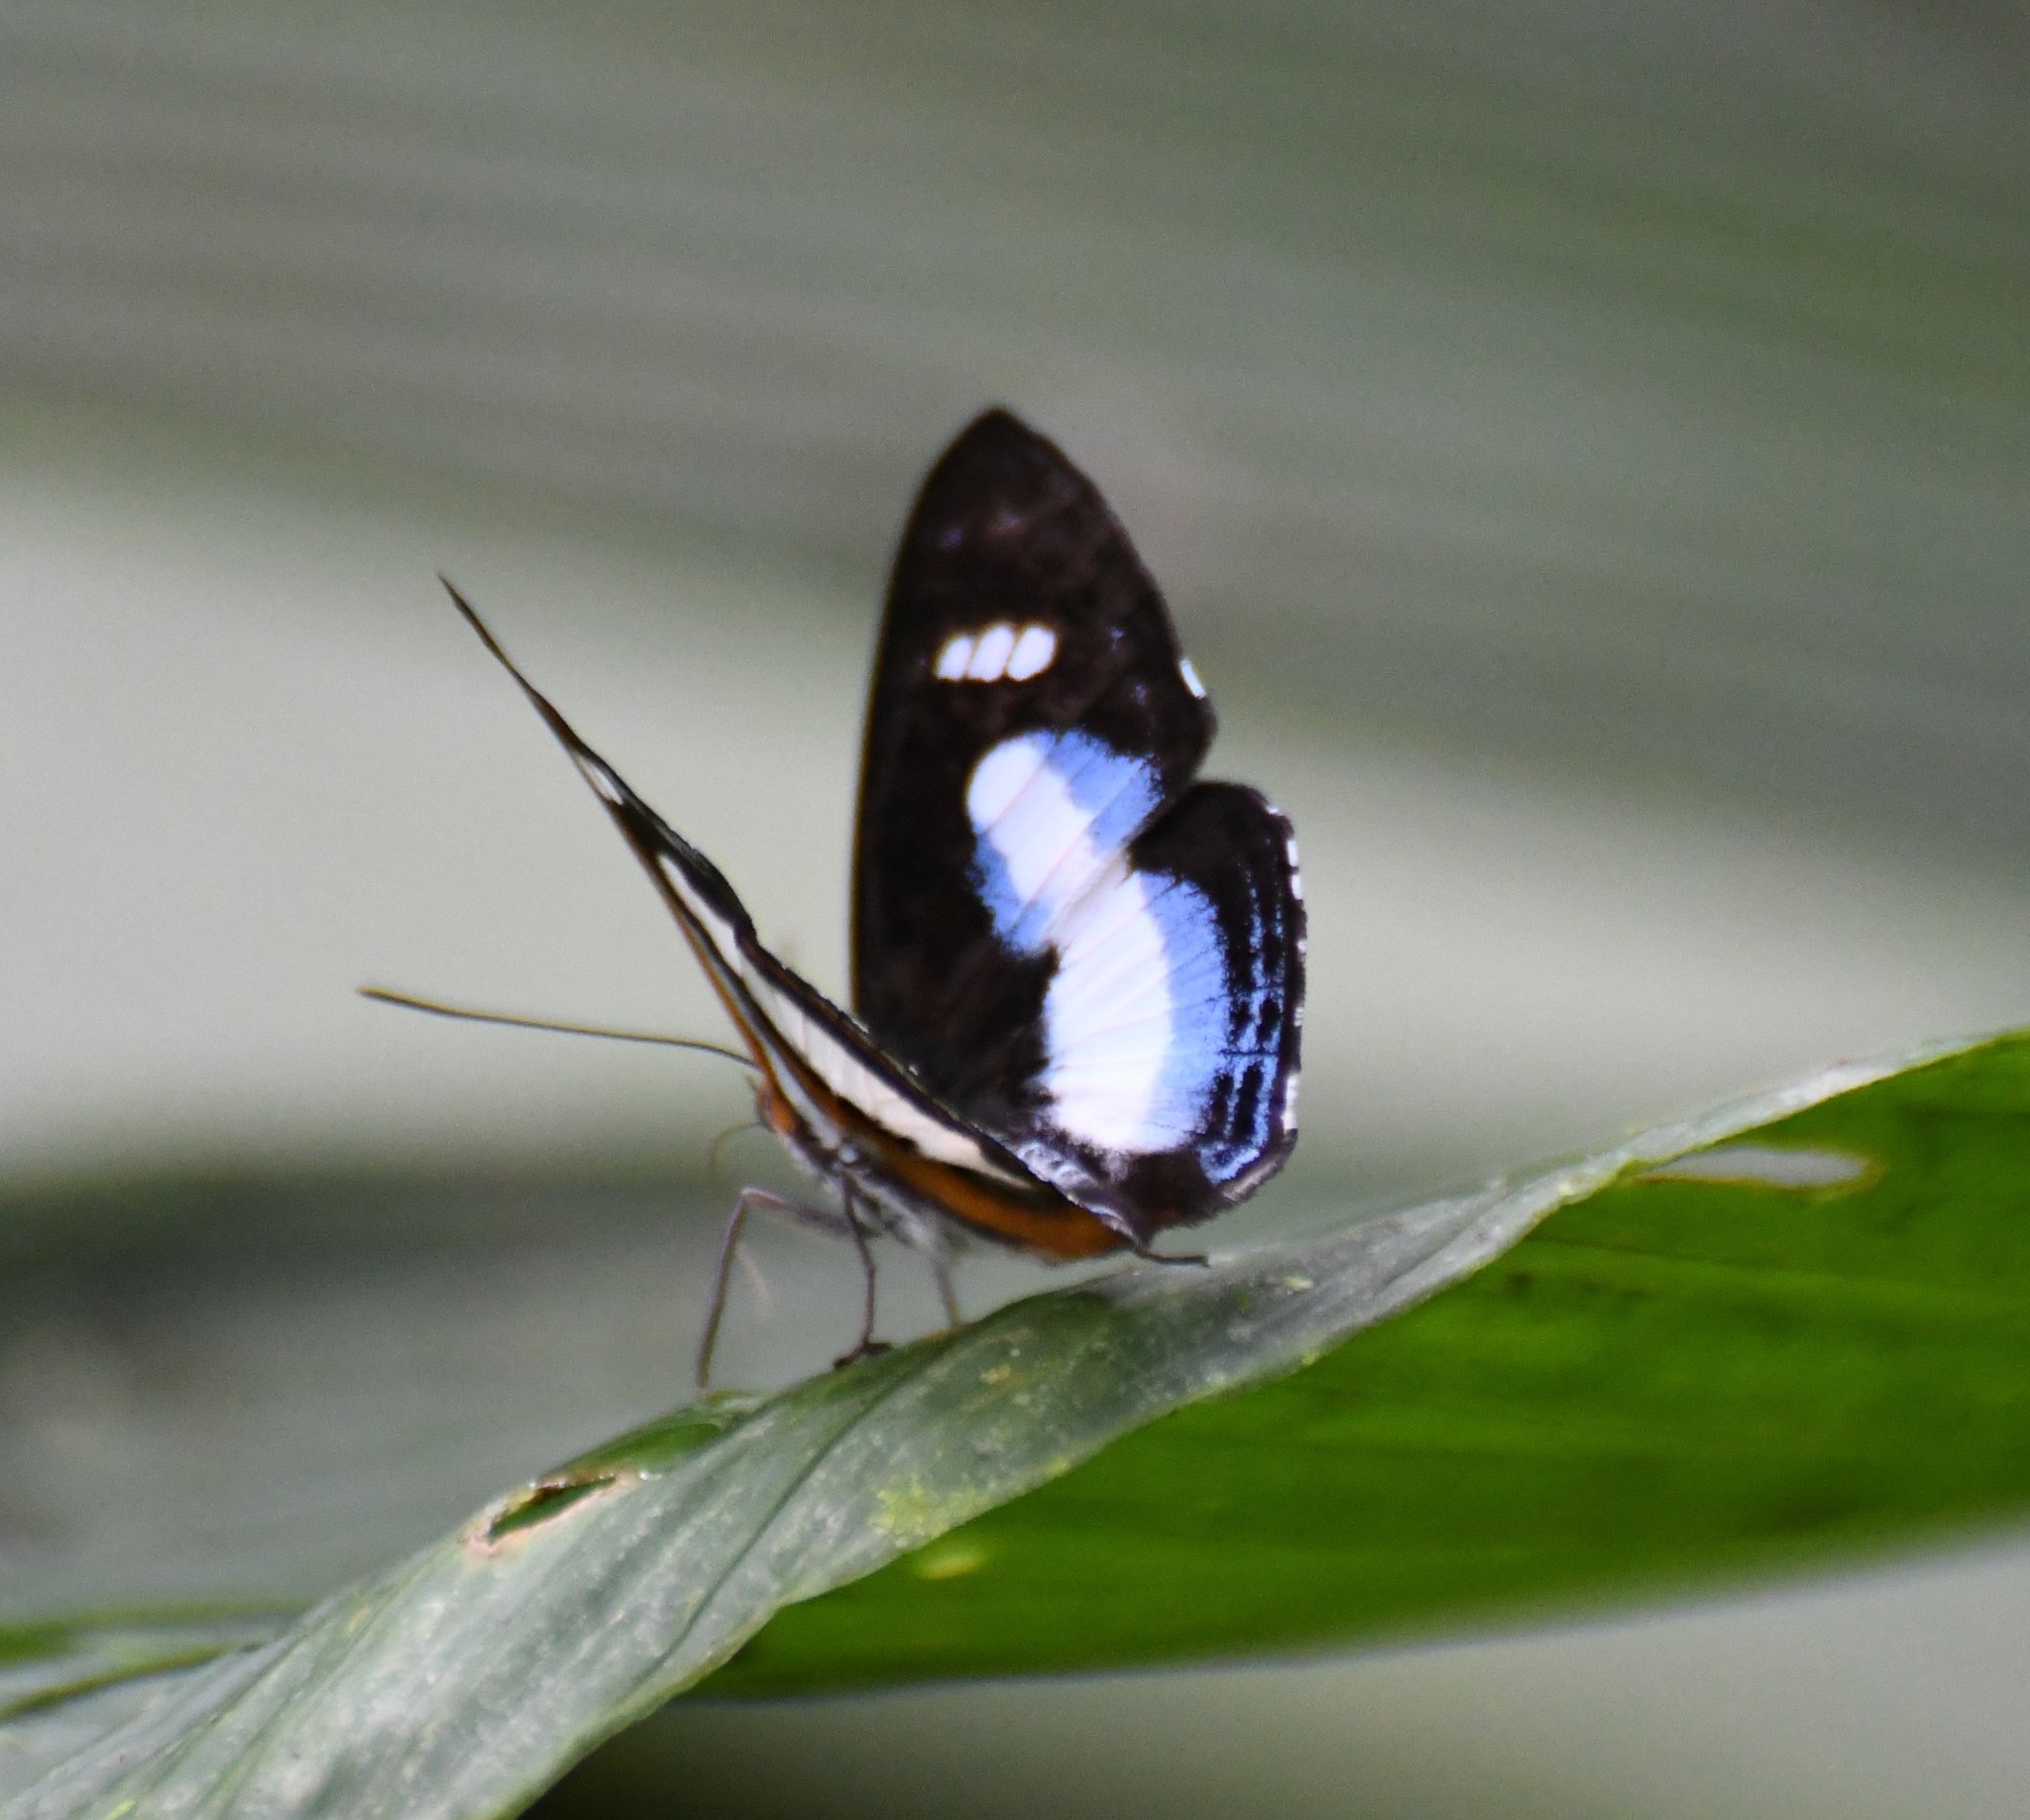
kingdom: Animalia
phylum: Arthropoda
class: Insecta
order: Lepidoptera
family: Riodinidae
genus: Thisbe
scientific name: Thisbe irenea
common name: Irenia metalmark
